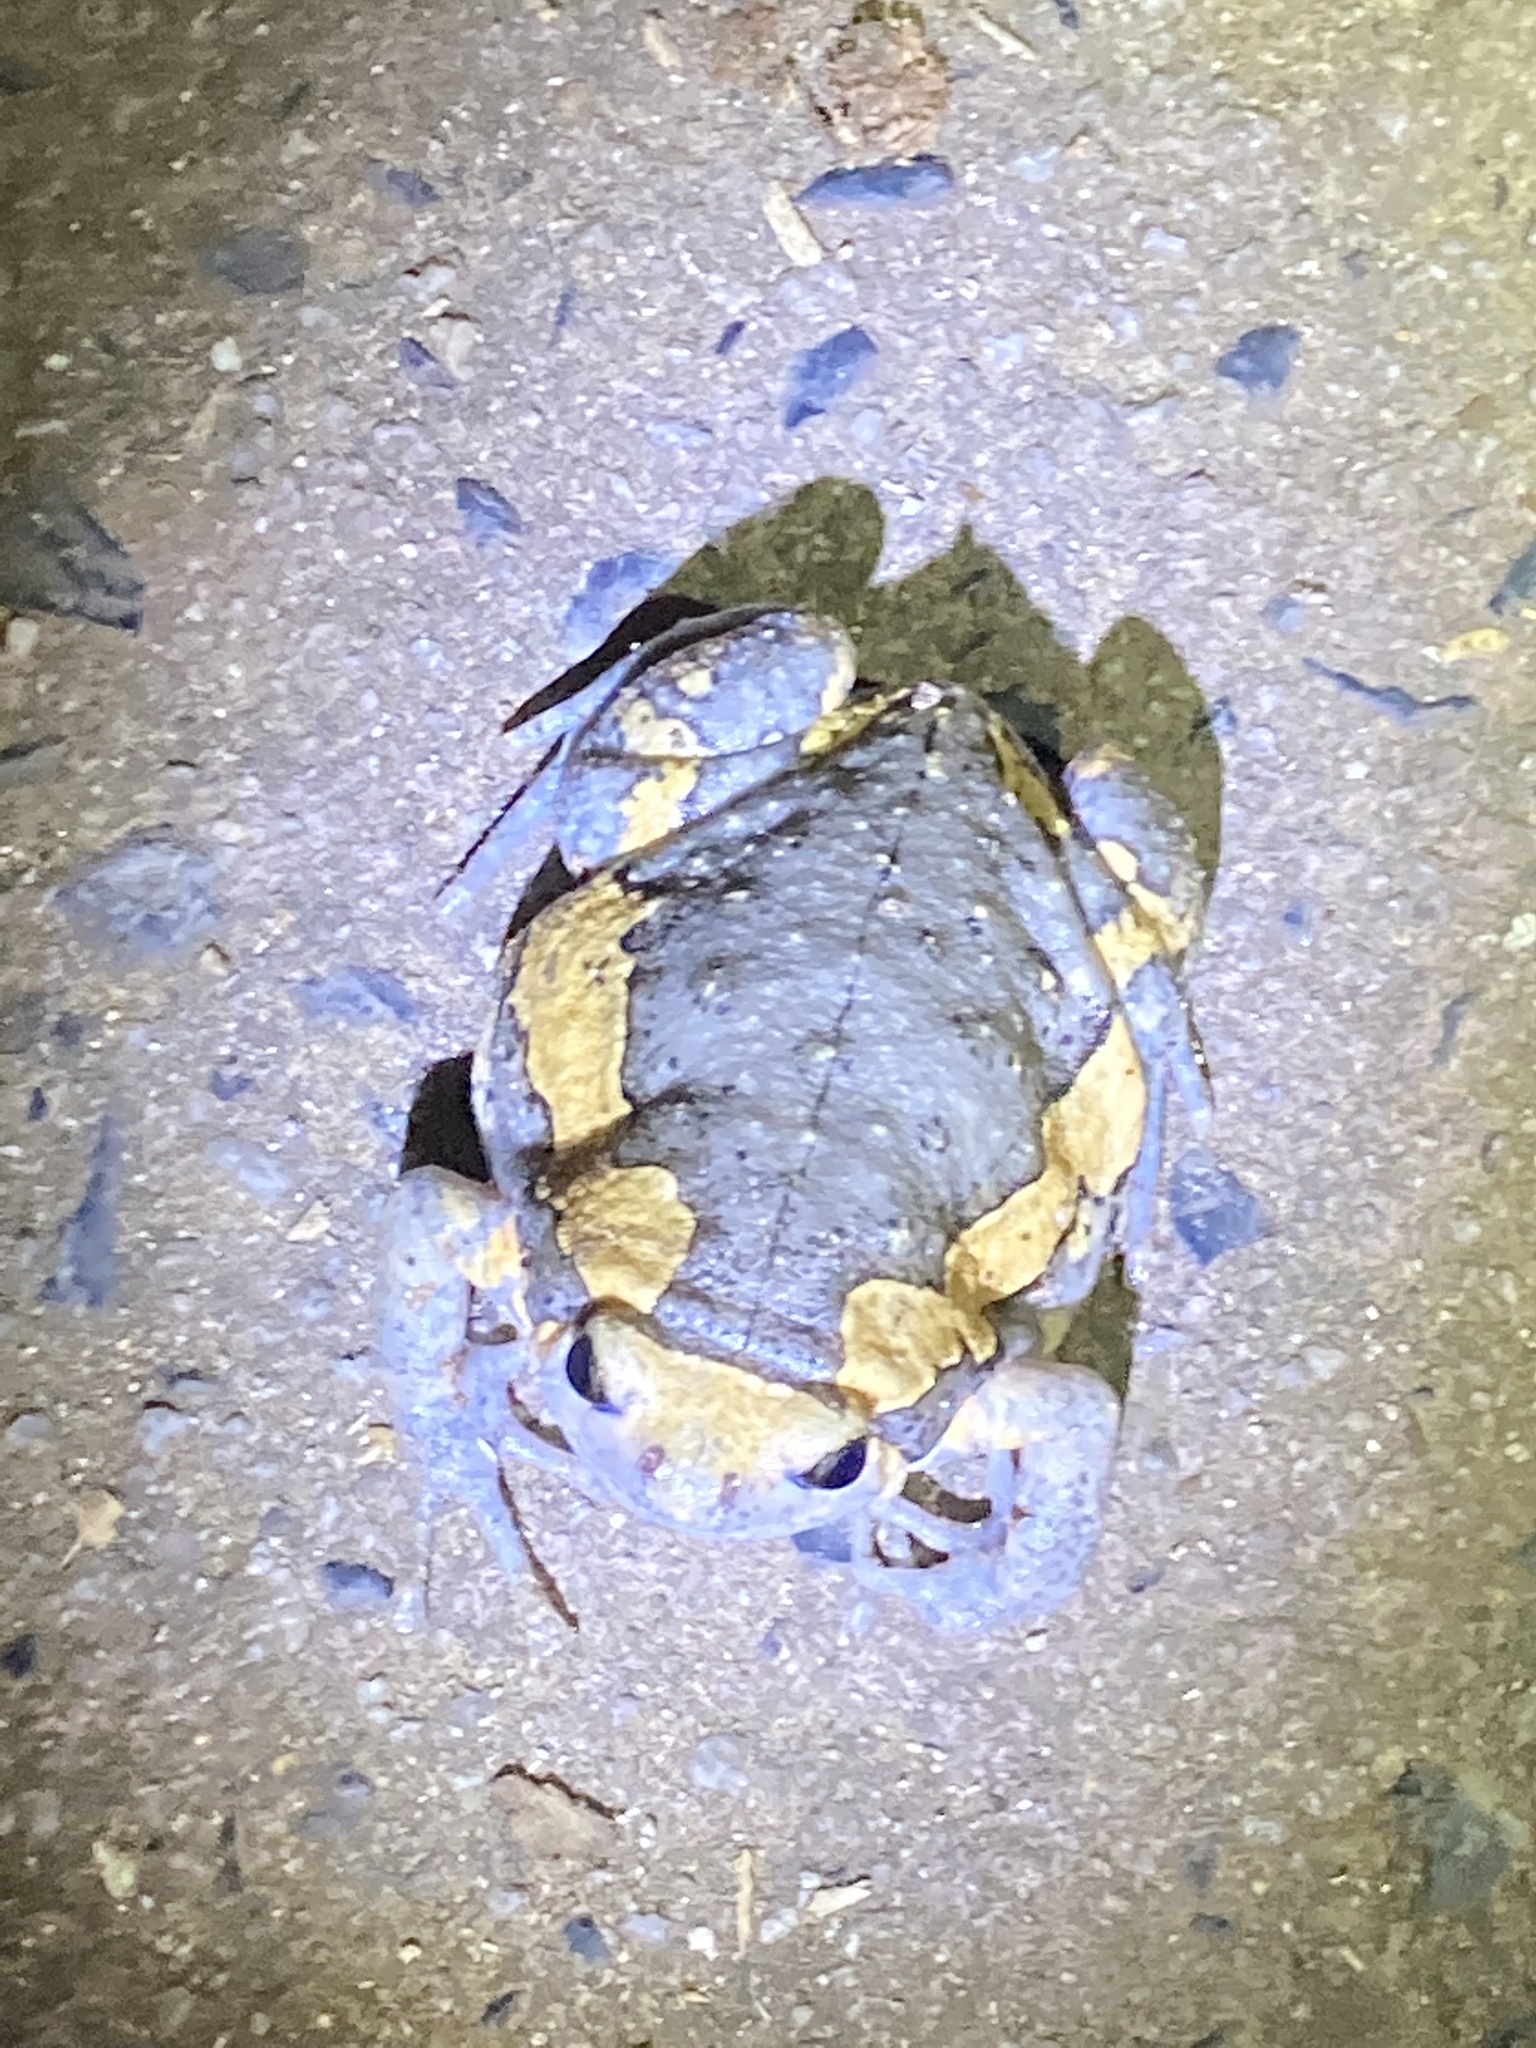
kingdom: Animalia
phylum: Chordata
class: Amphibia
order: Anura
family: Microhylidae
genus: Kaloula
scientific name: Kaloula pulchra
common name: Common,banded bullfrog
